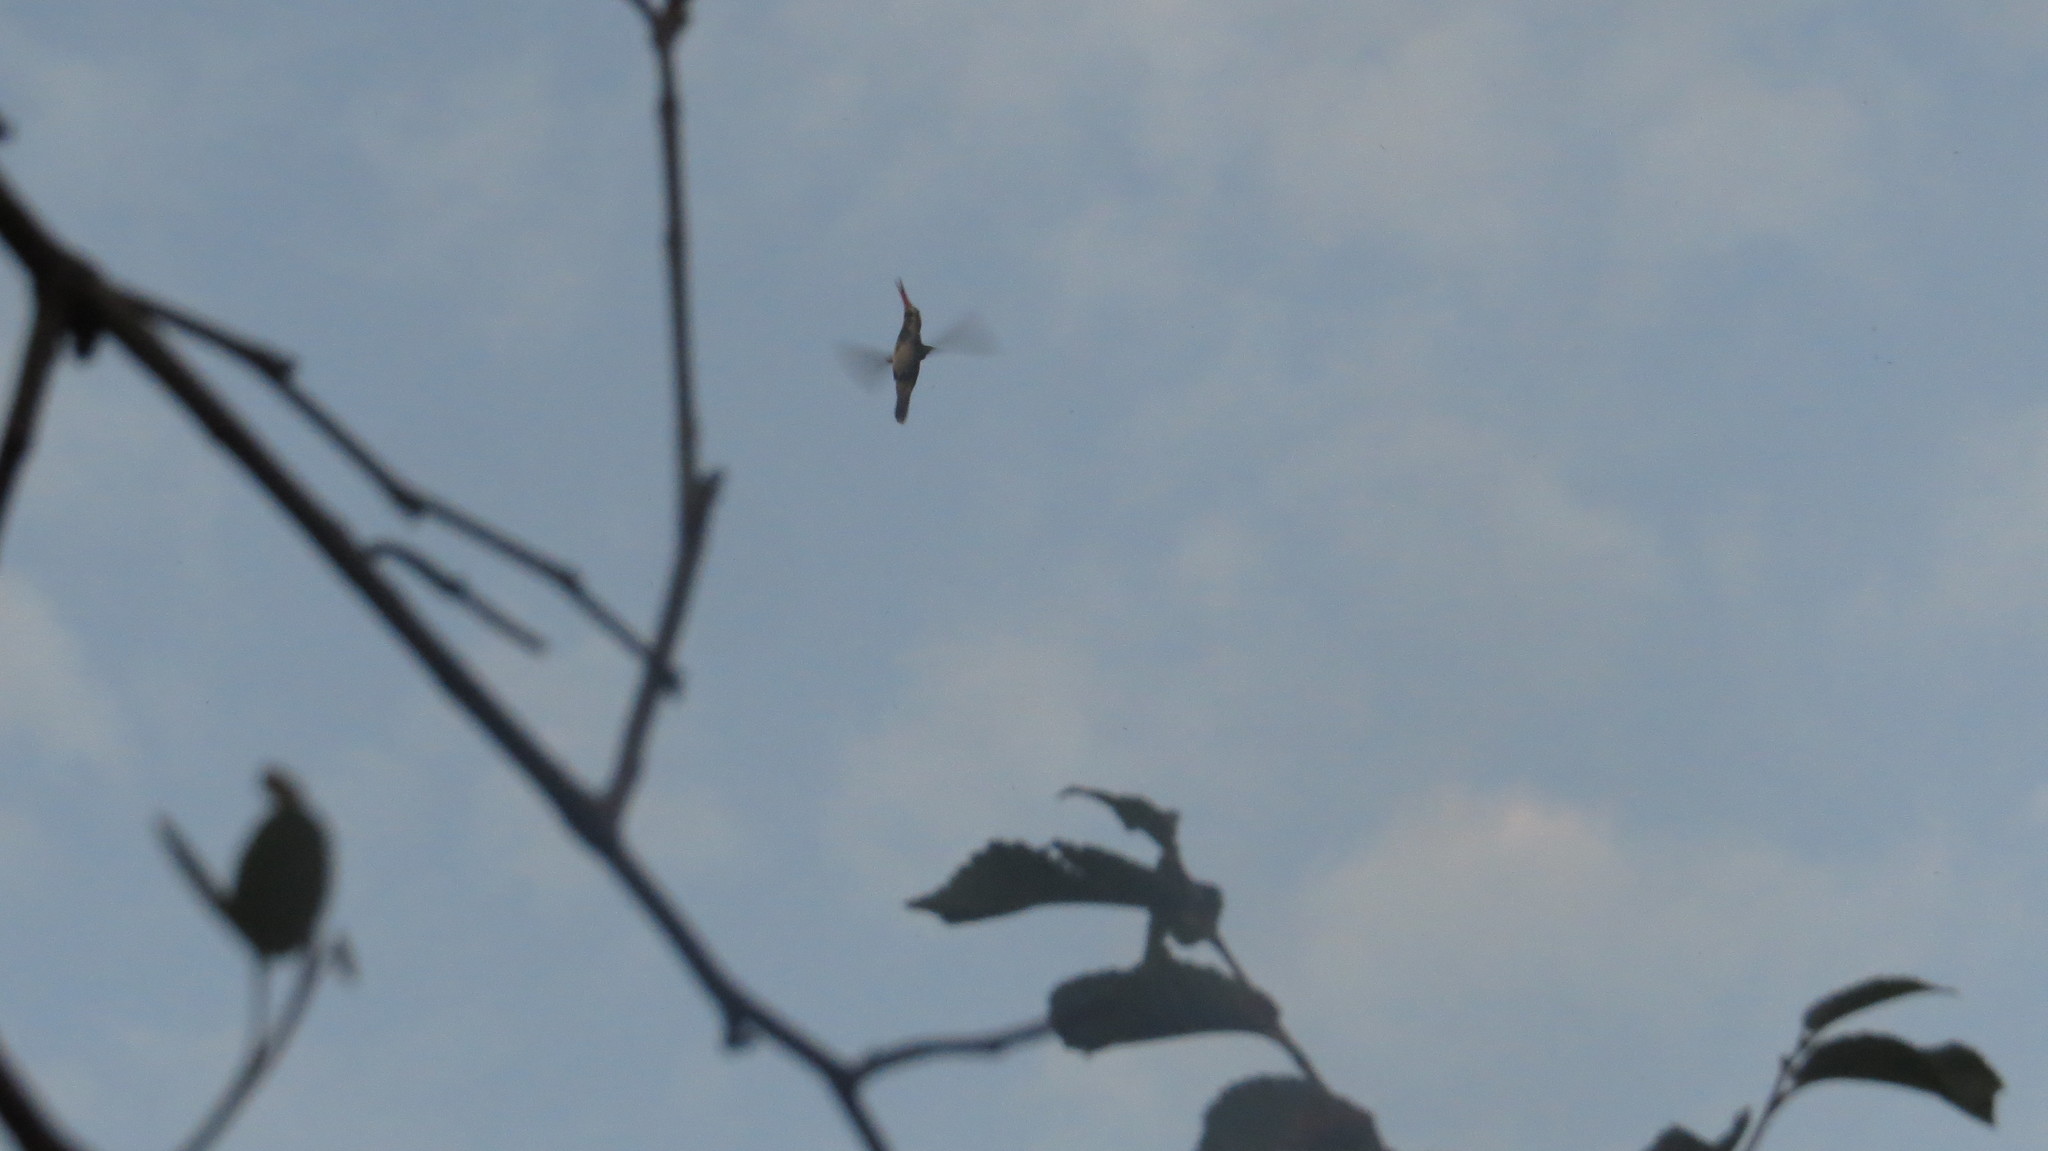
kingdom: Animalia
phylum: Chordata
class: Aves
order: Apodiformes
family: Trochilidae
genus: Chlorostilbon
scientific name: Chlorostilbon lucidus
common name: Glittering-bellied emerald
